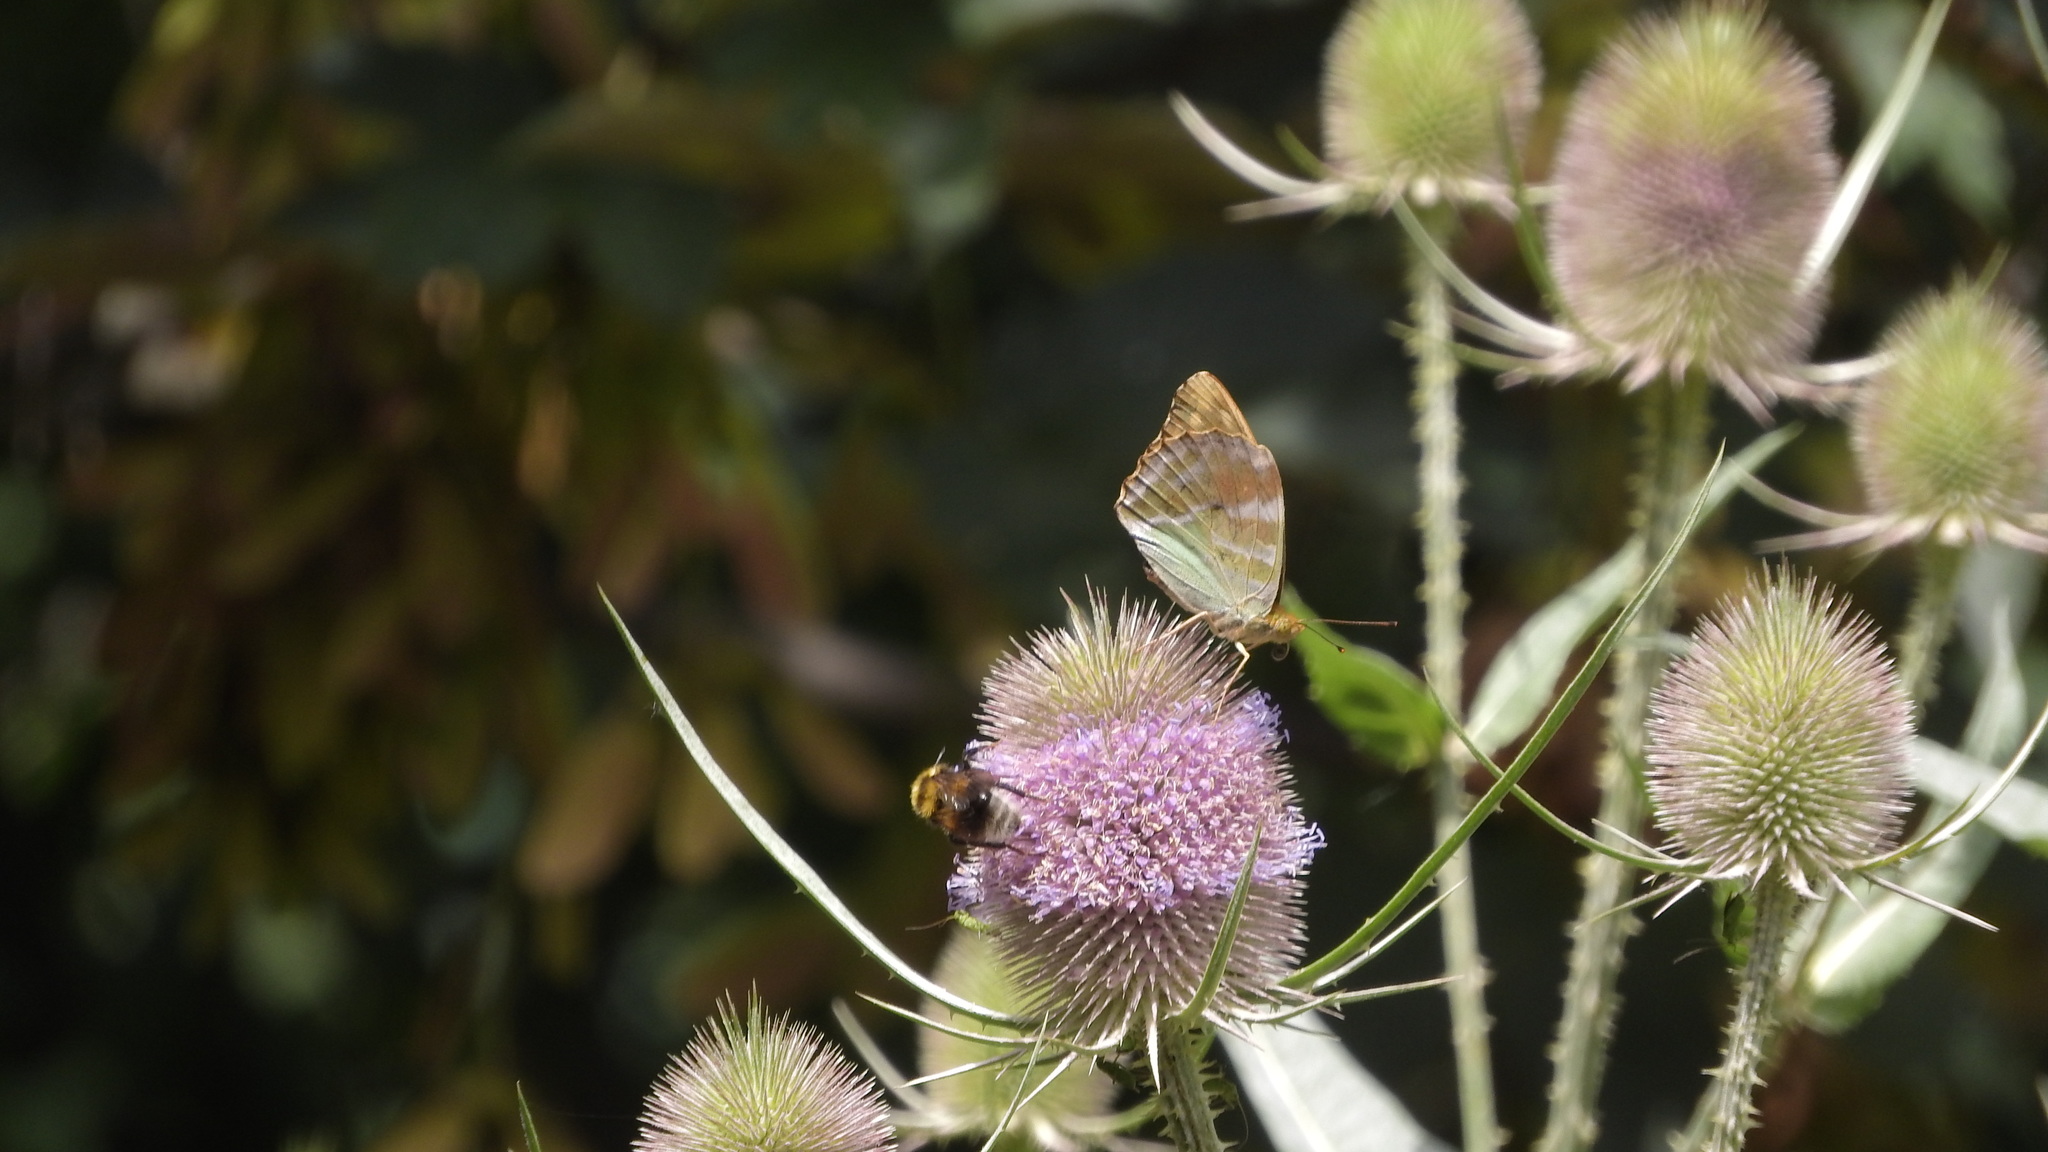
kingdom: Animalia
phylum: Arthropoda
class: Insecta
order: Lepidoptera
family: Nymphalidae
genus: Argynnis
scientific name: Argynnis paphia
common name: Silver-washed fritillary
